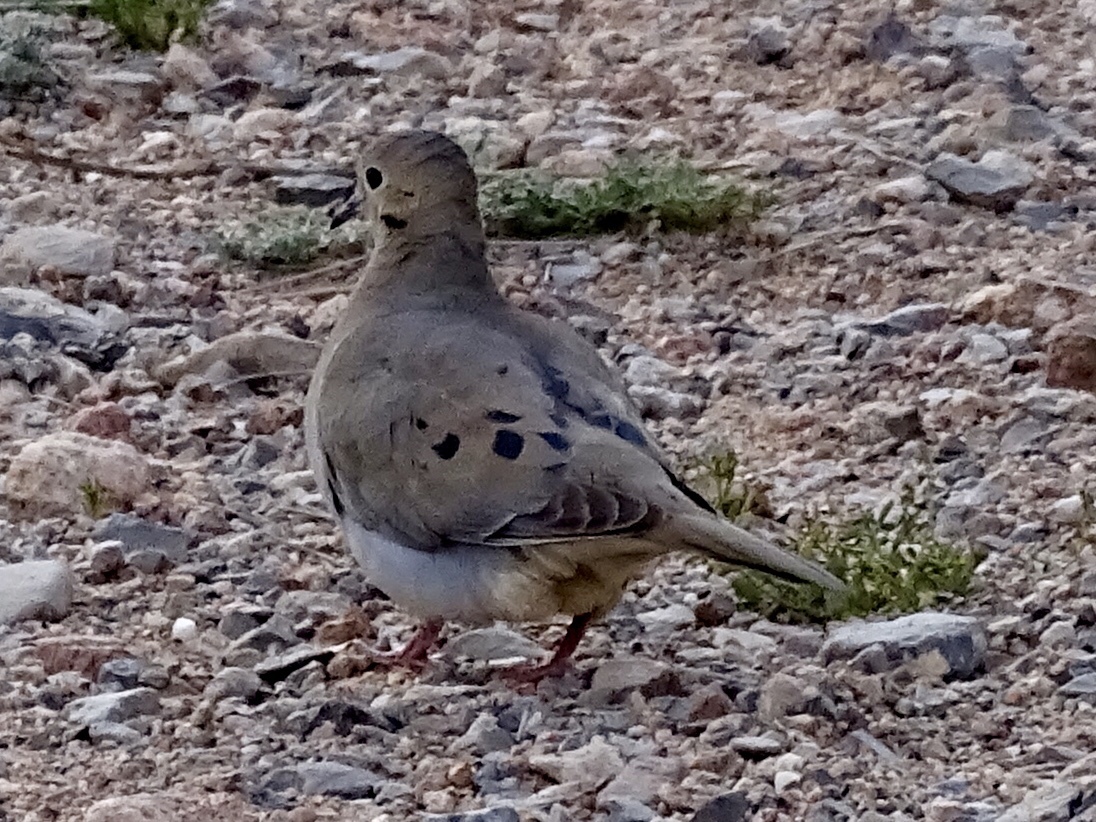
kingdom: Animalia
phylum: Chordata
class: Aves
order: Columbiformes
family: Columbidae
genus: Zenaida
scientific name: Zenaida macroura
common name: Mourning dove
